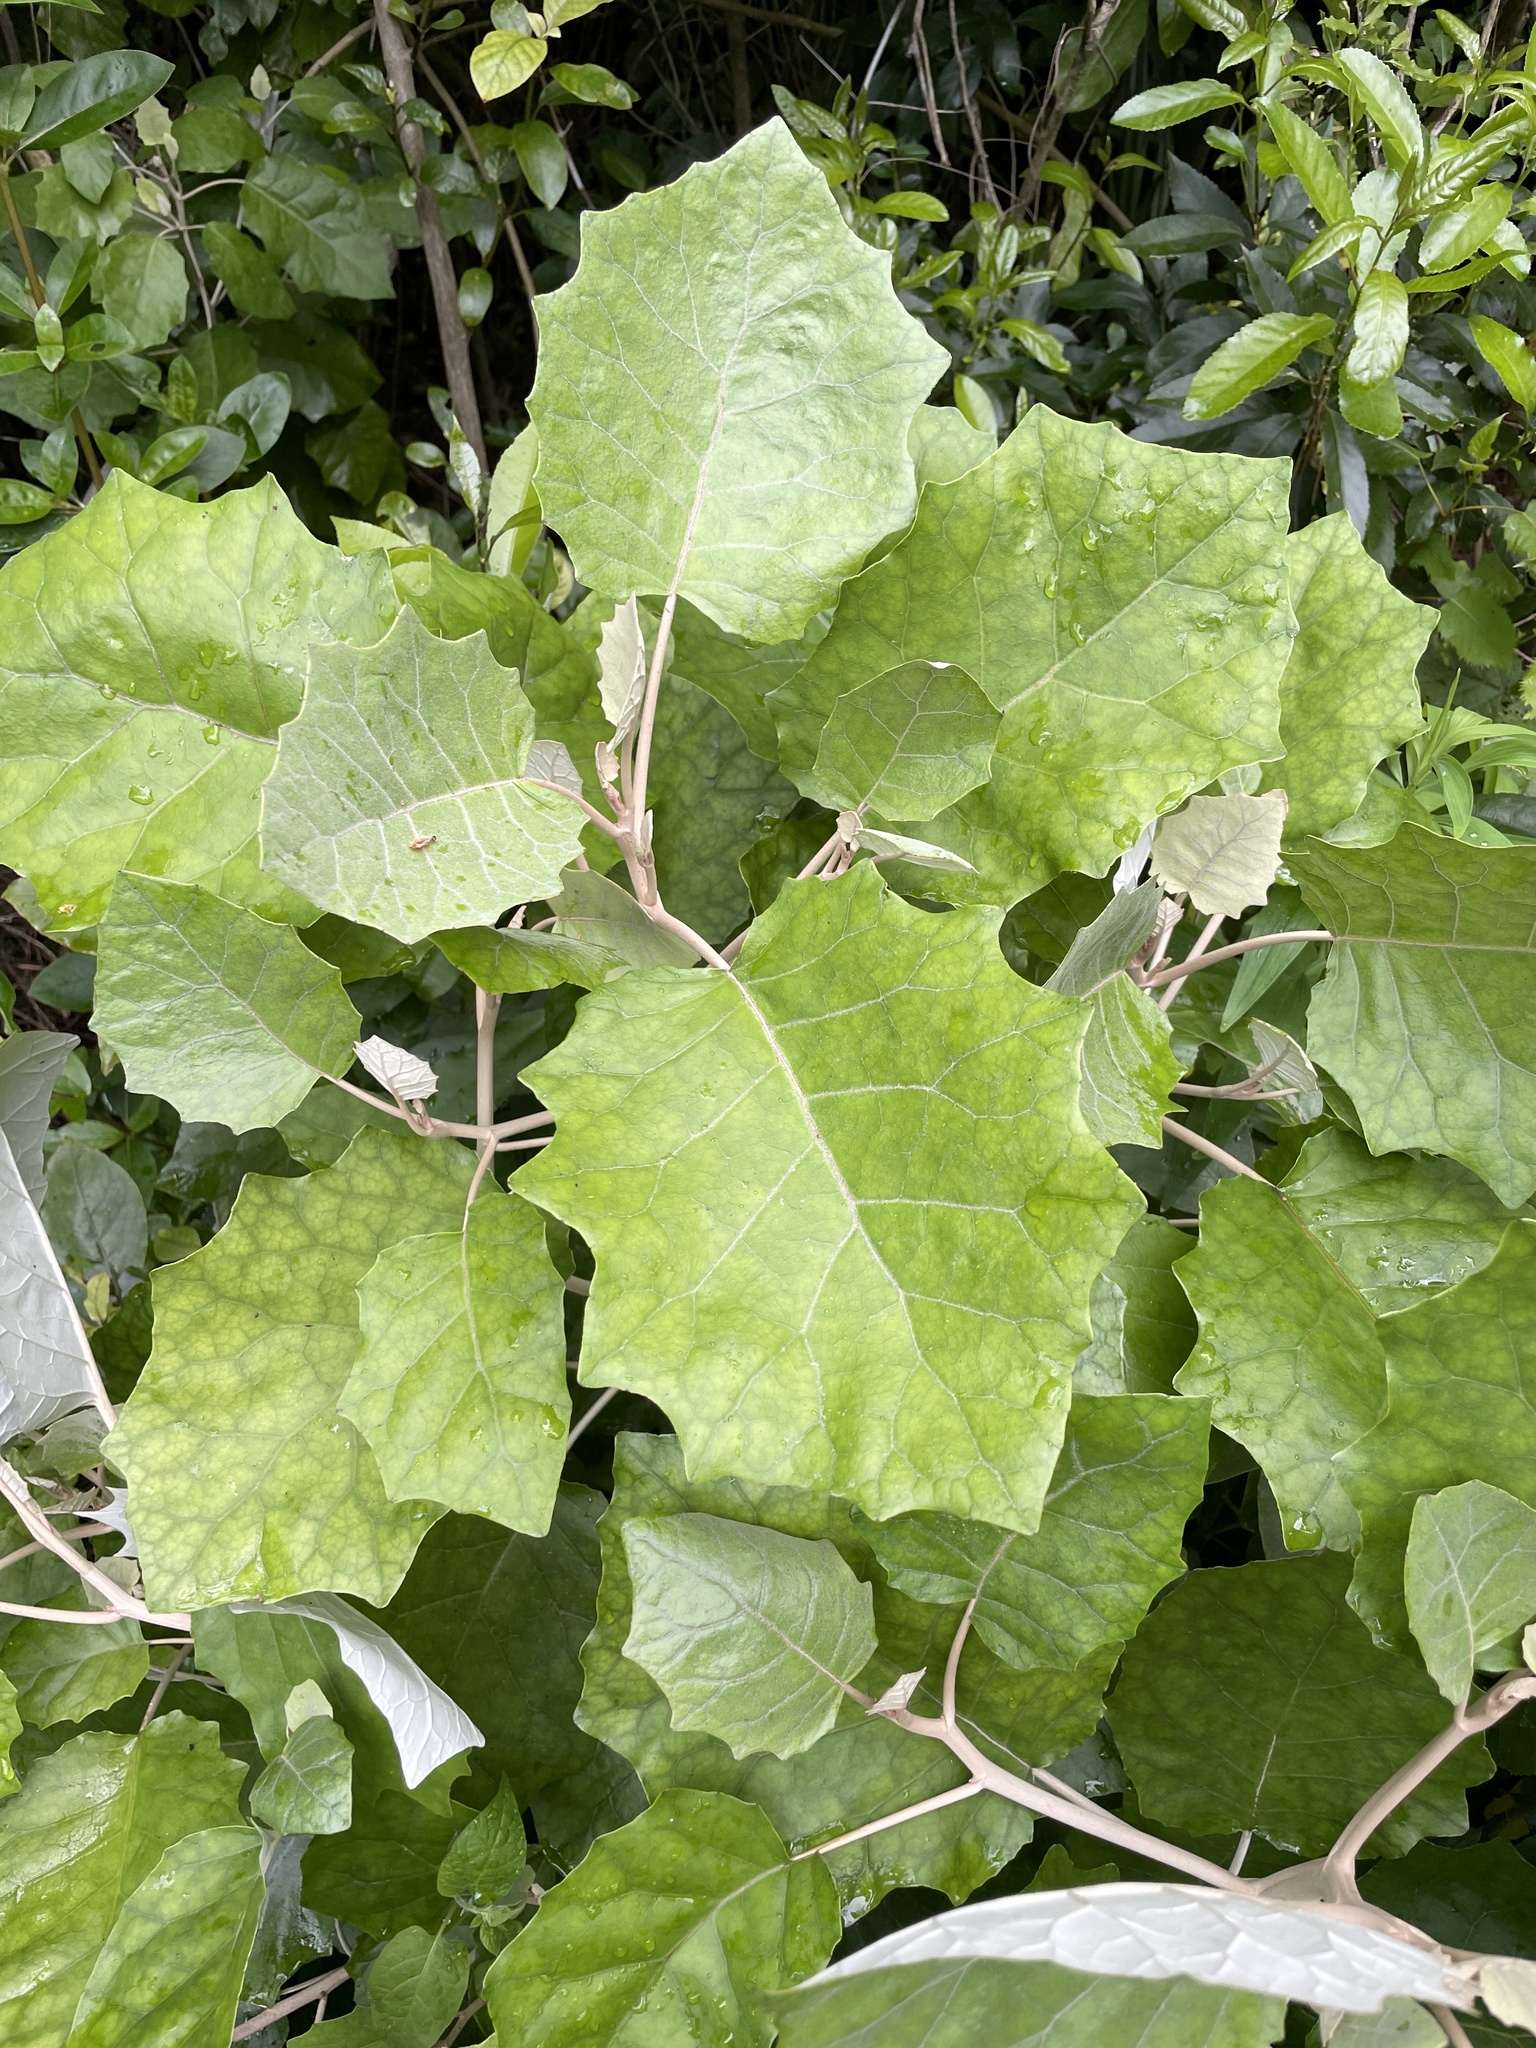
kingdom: Plantae
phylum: Tracheophyta
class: Magnoliopsida
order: Asterales
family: Asteraceae
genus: Brachyglottis
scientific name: Brachyglottis repanda
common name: Hedge ragwort
